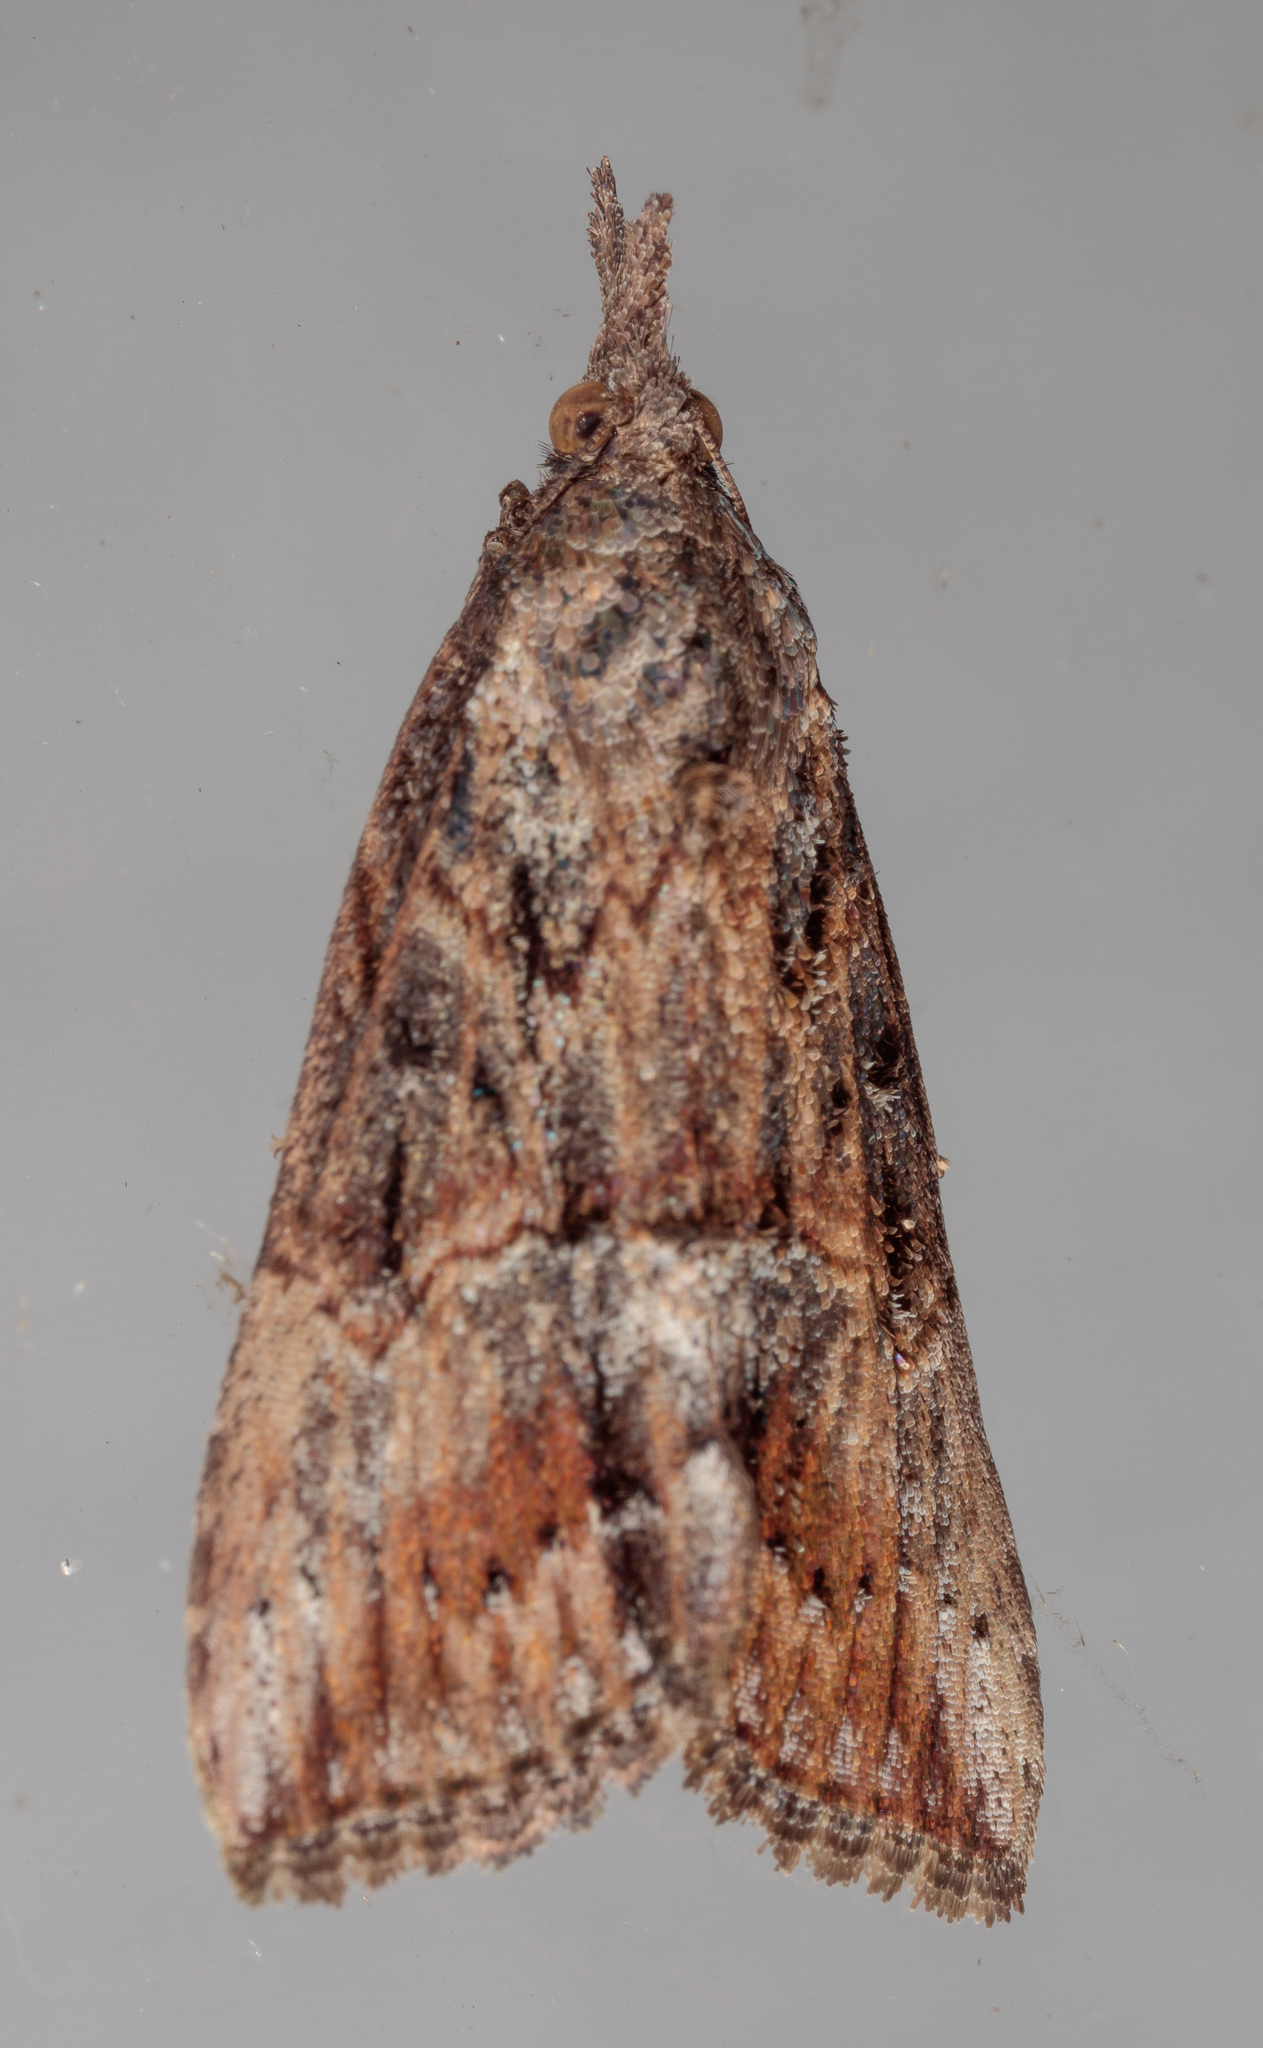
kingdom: Animalia
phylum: Arthropoda
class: Insecta
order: Lepidoptera
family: Erebidae
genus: Hypena
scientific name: Hypena scabra
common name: Green cloverworm
